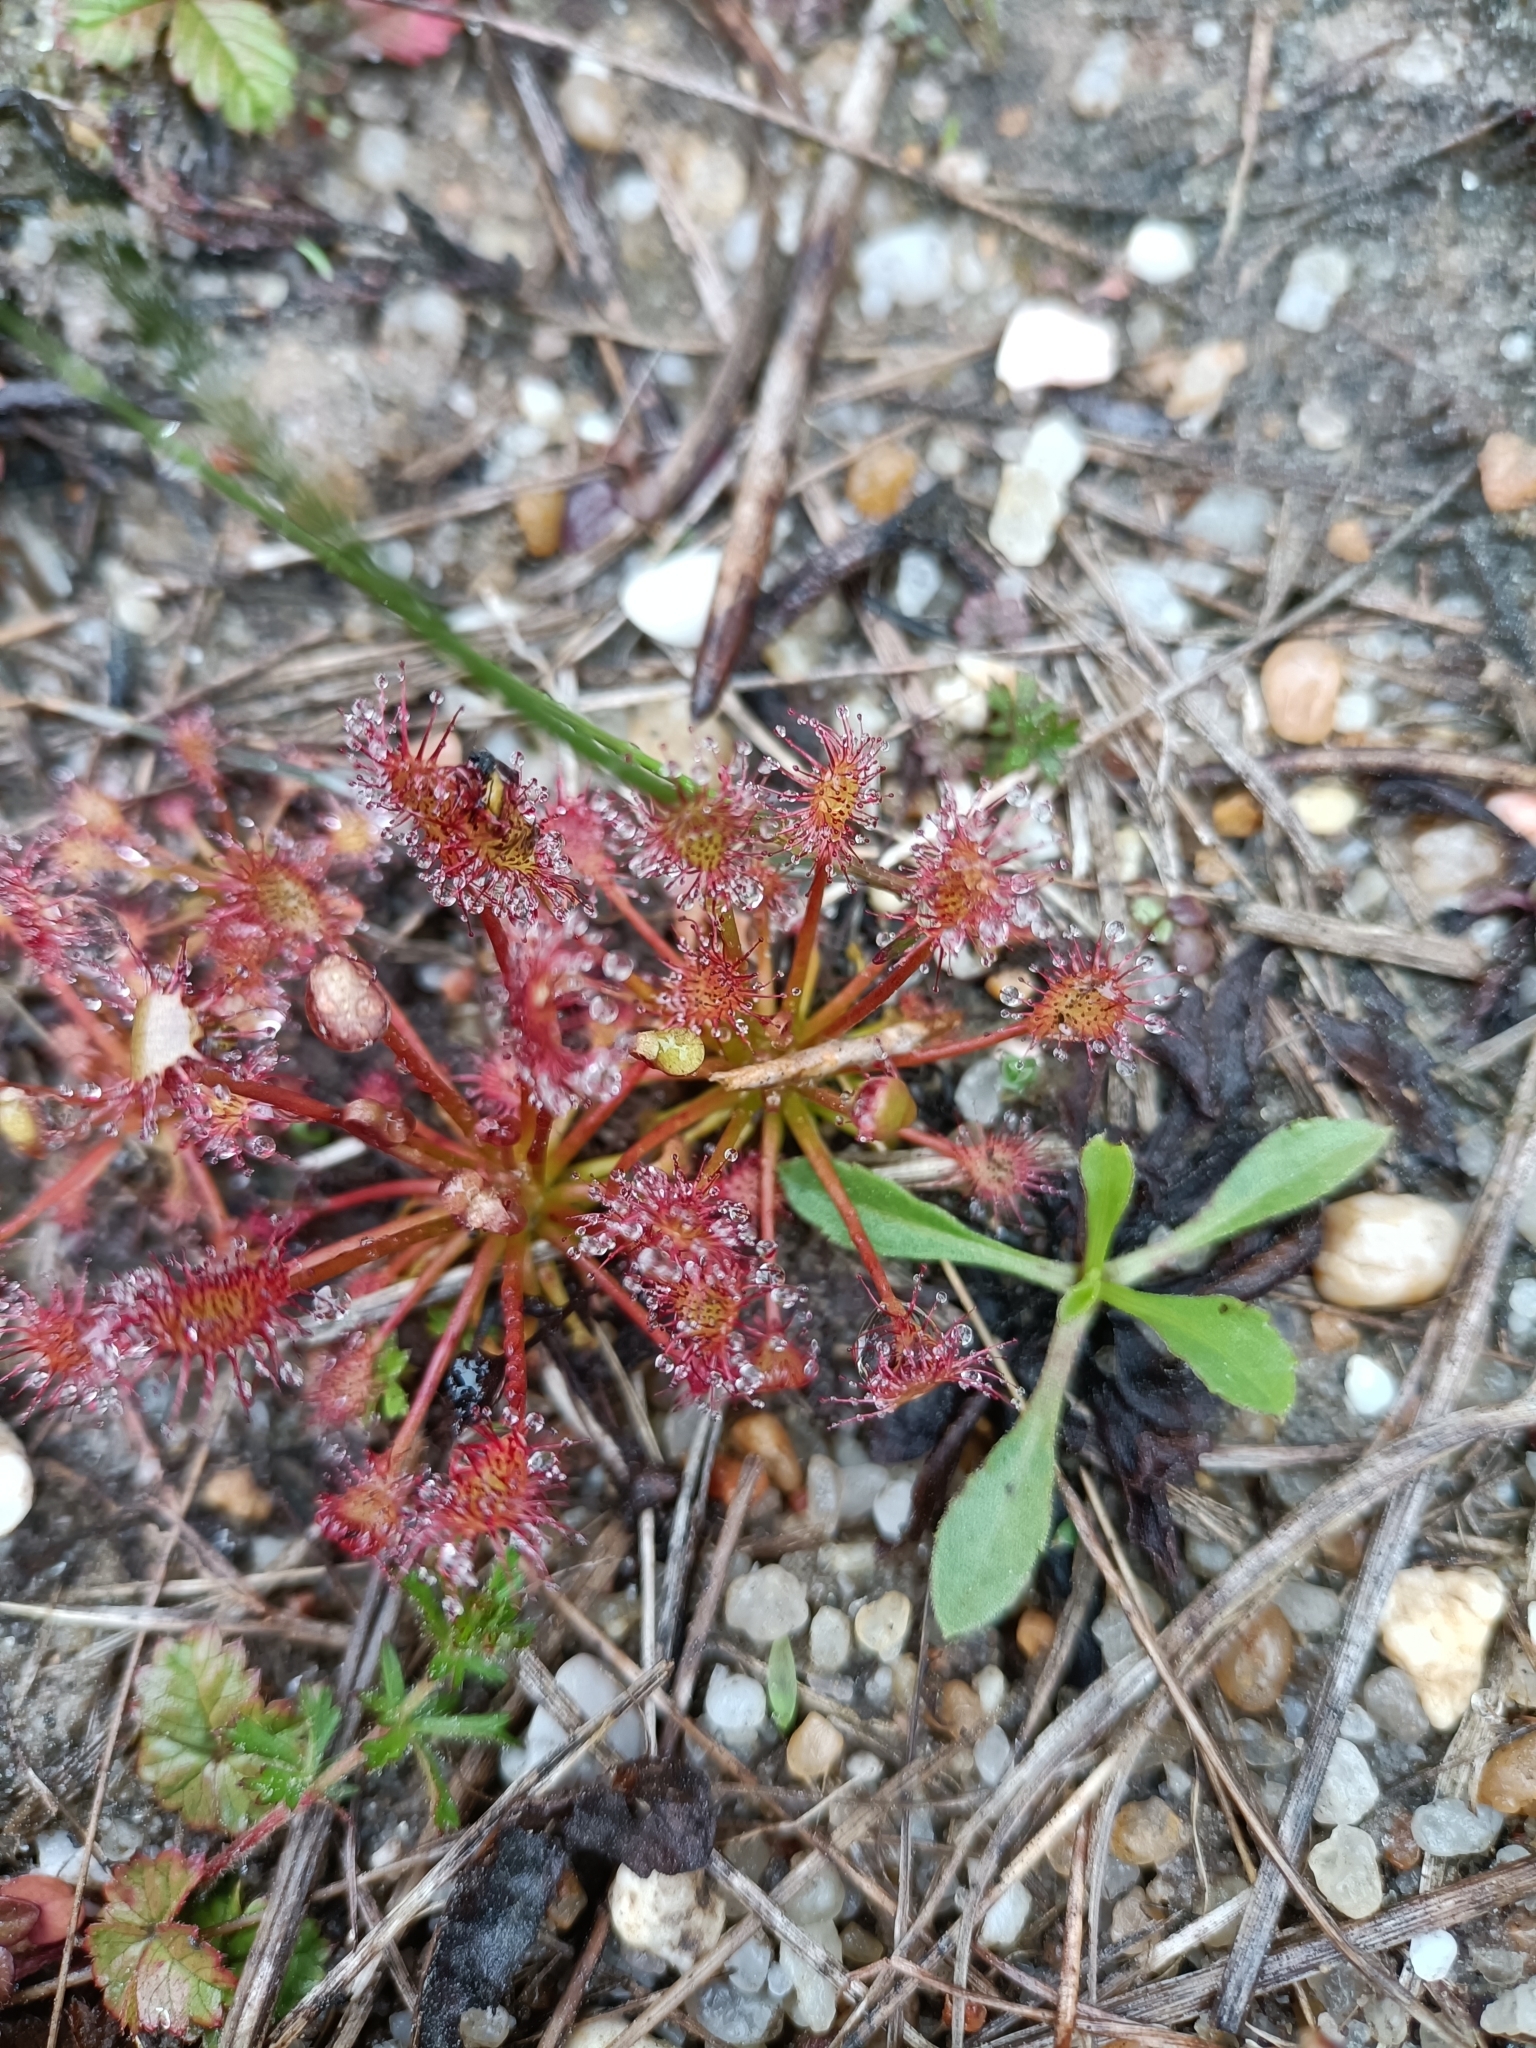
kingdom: Plantae
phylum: Tracheophyta
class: Magnoliopsida
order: Caryophyllales
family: Droseraceae
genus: Drosera
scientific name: Drosera intermedia
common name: Oblong-leaved sundew
